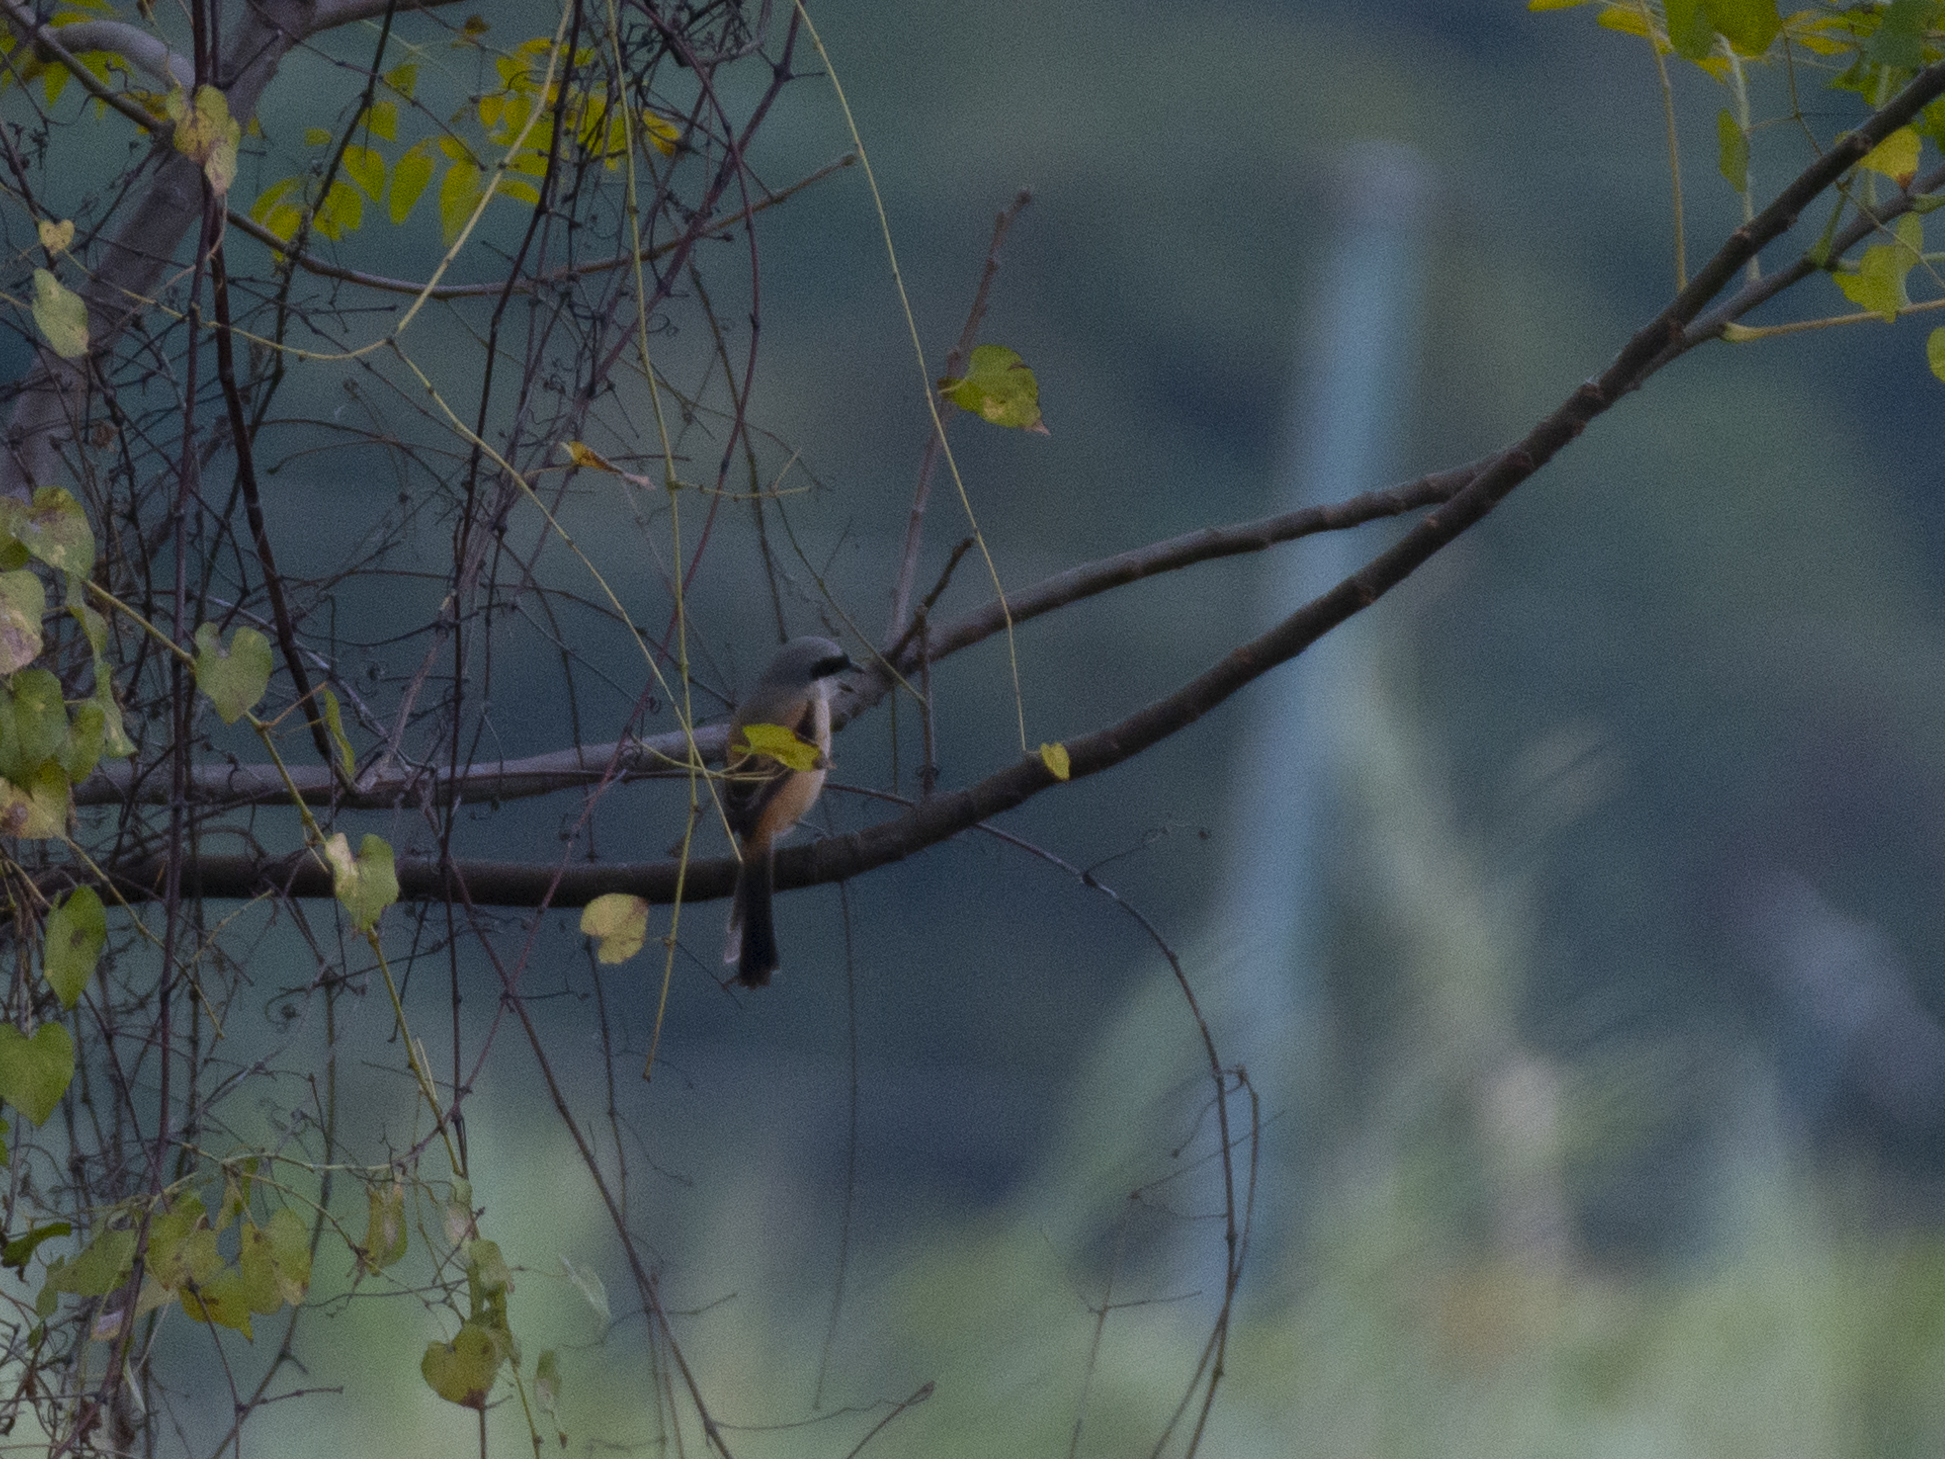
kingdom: Animalia
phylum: Chordata
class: Aves
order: Passeriformes
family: Laniidae
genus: Lanius
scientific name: Lanius schach
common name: Long-tailed shrike
